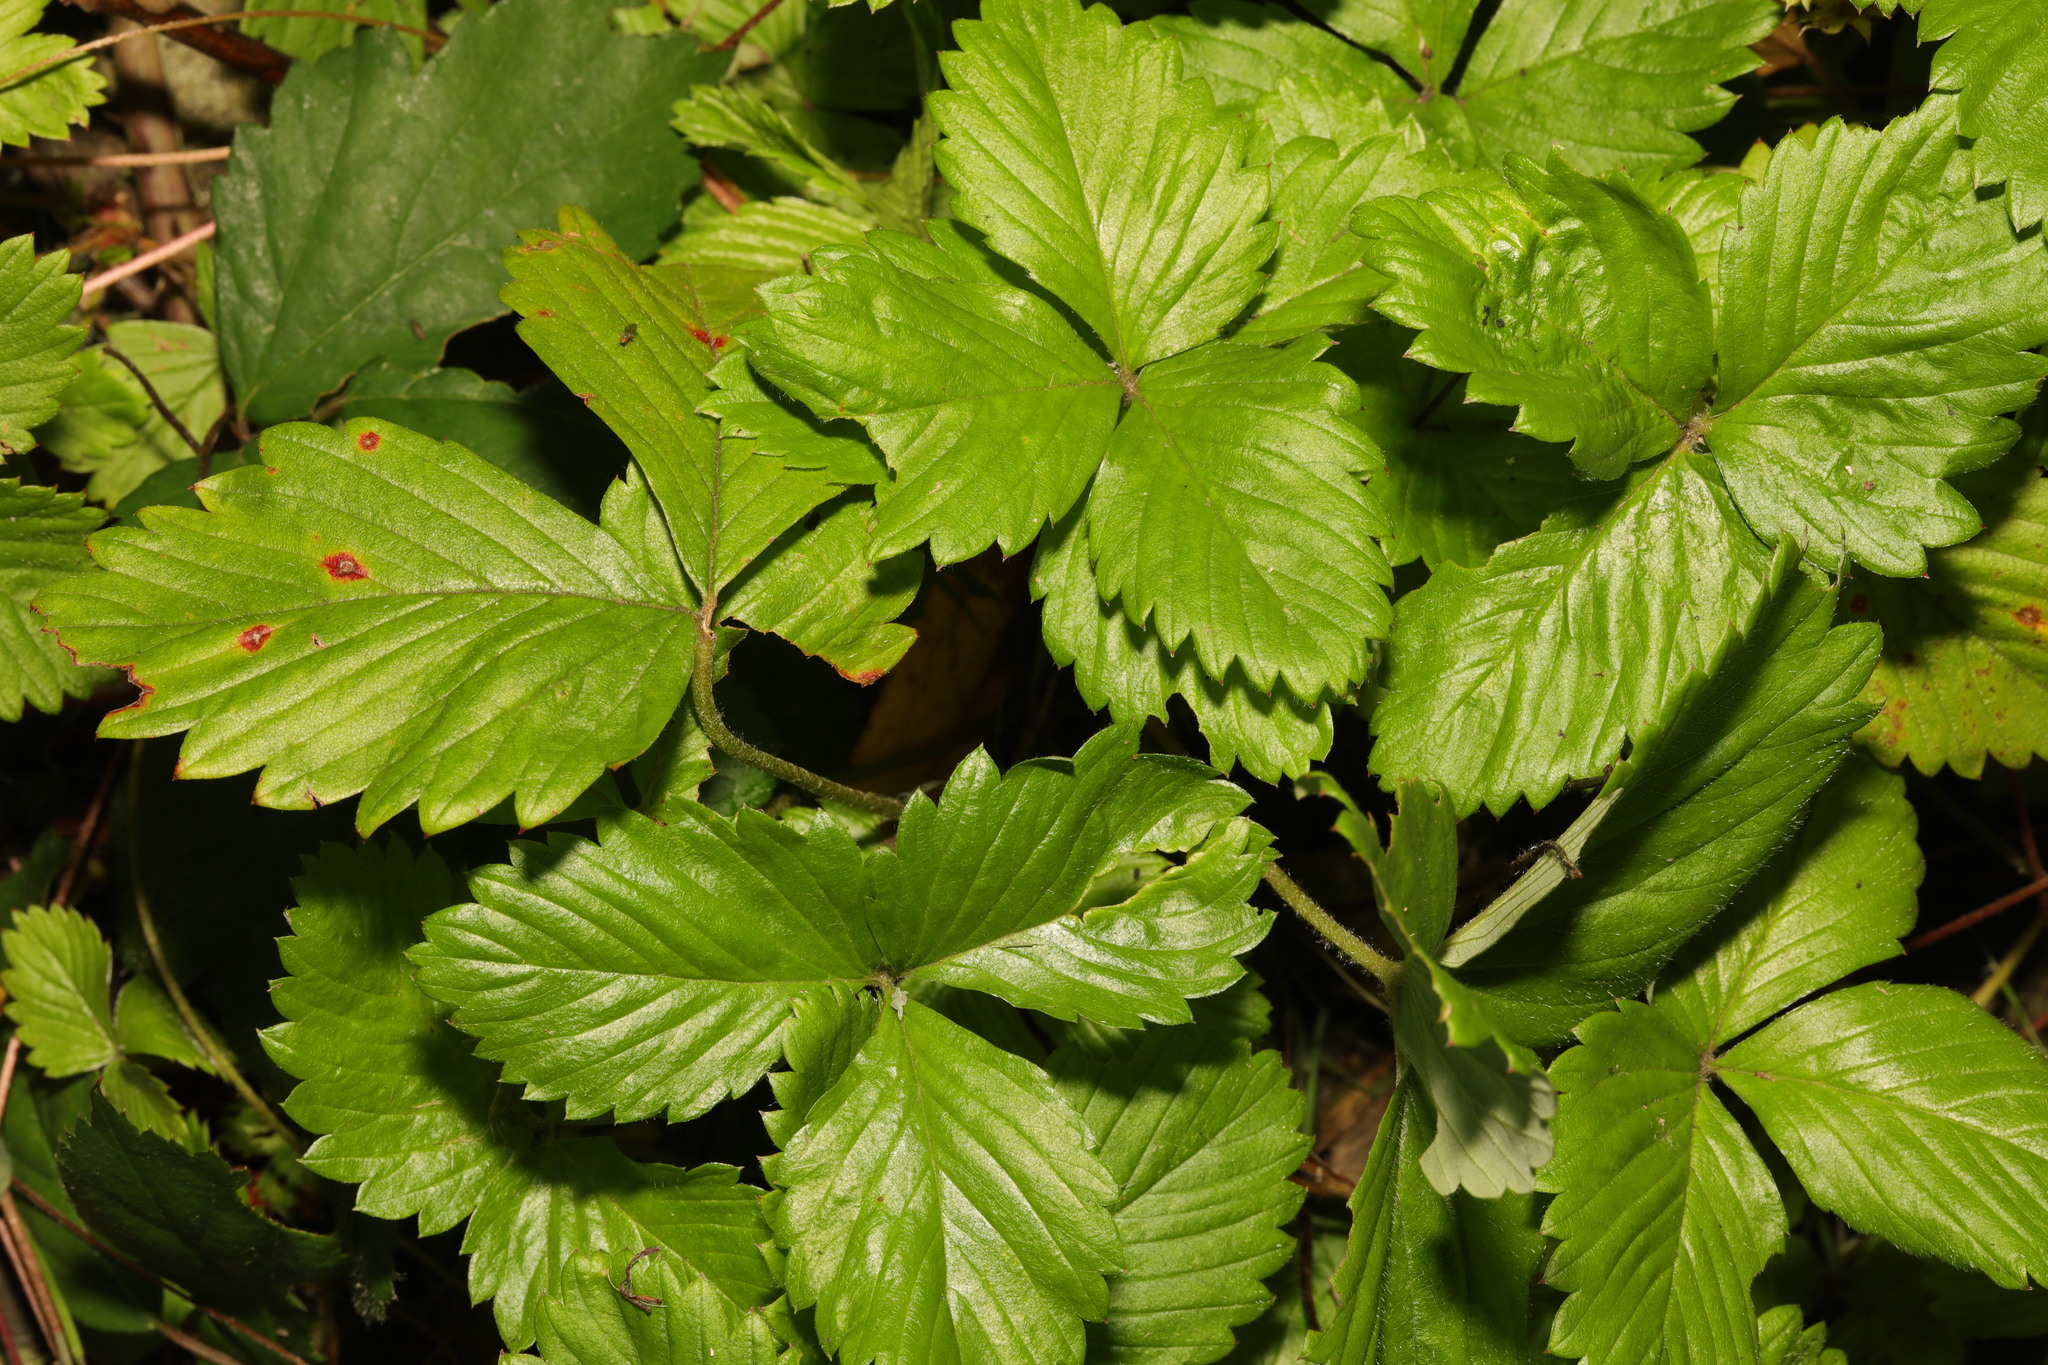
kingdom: Plantae
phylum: Tracheophyta
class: Magnoliopsida
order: Rosales
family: Rosaceae
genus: Fragaria
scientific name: Fragaria vesca
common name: Wild strawberry
